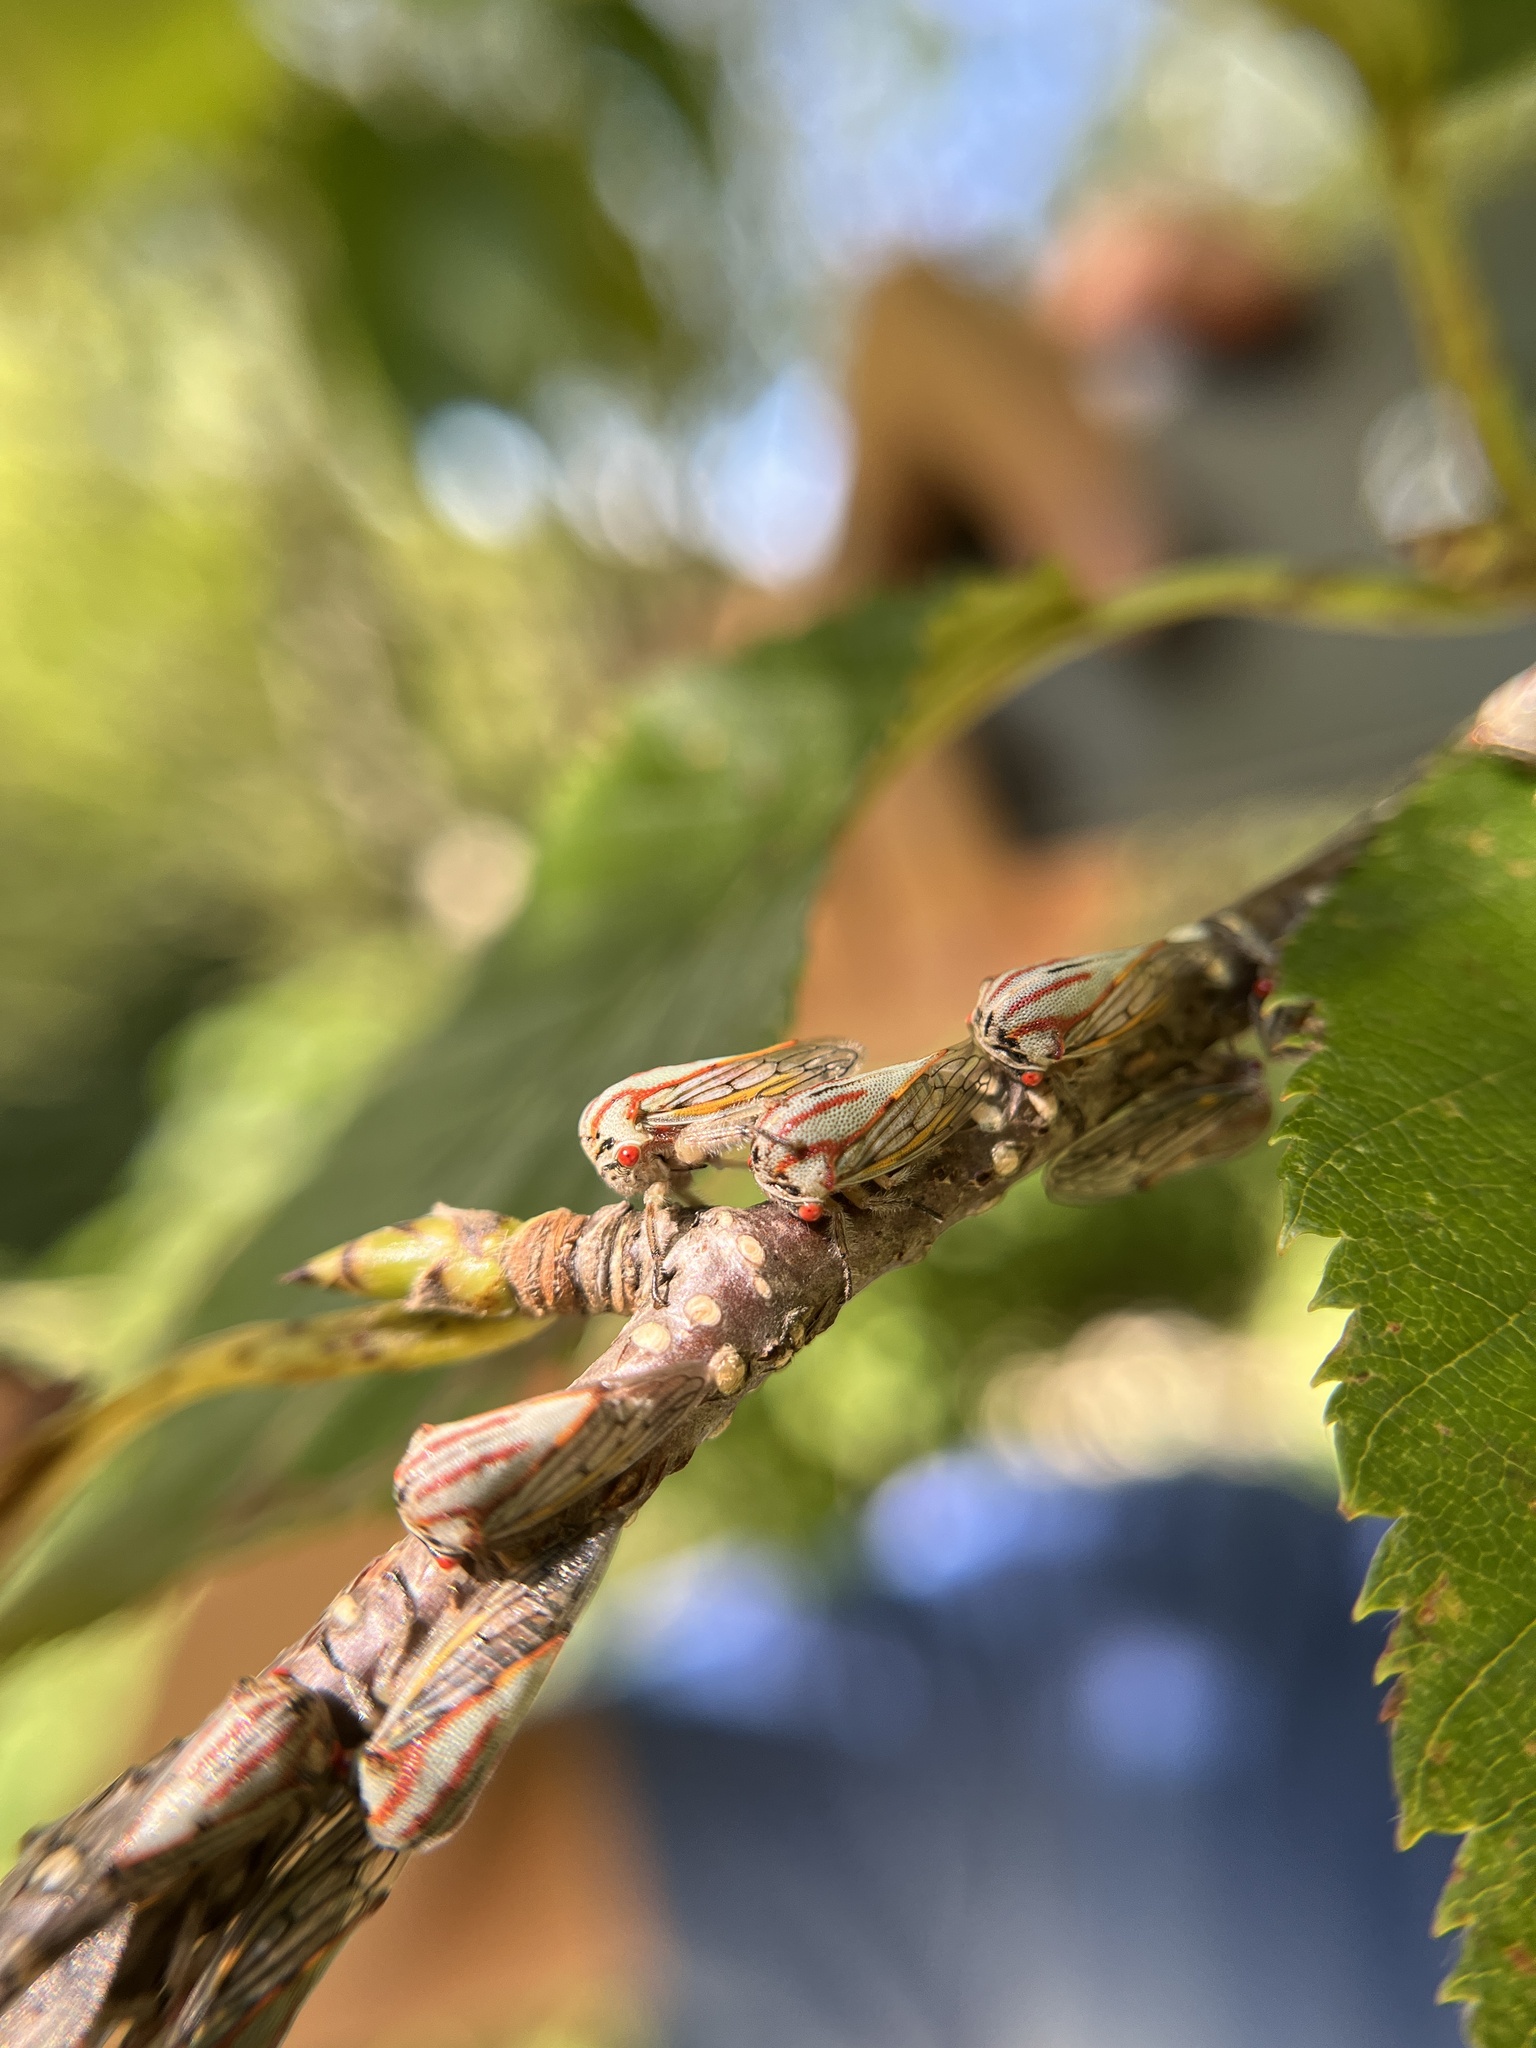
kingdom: Animalia
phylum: Arthropoda
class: Insecta
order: Hemiptera
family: Membracidae
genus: Platycotis
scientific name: Platycotis vittatus
